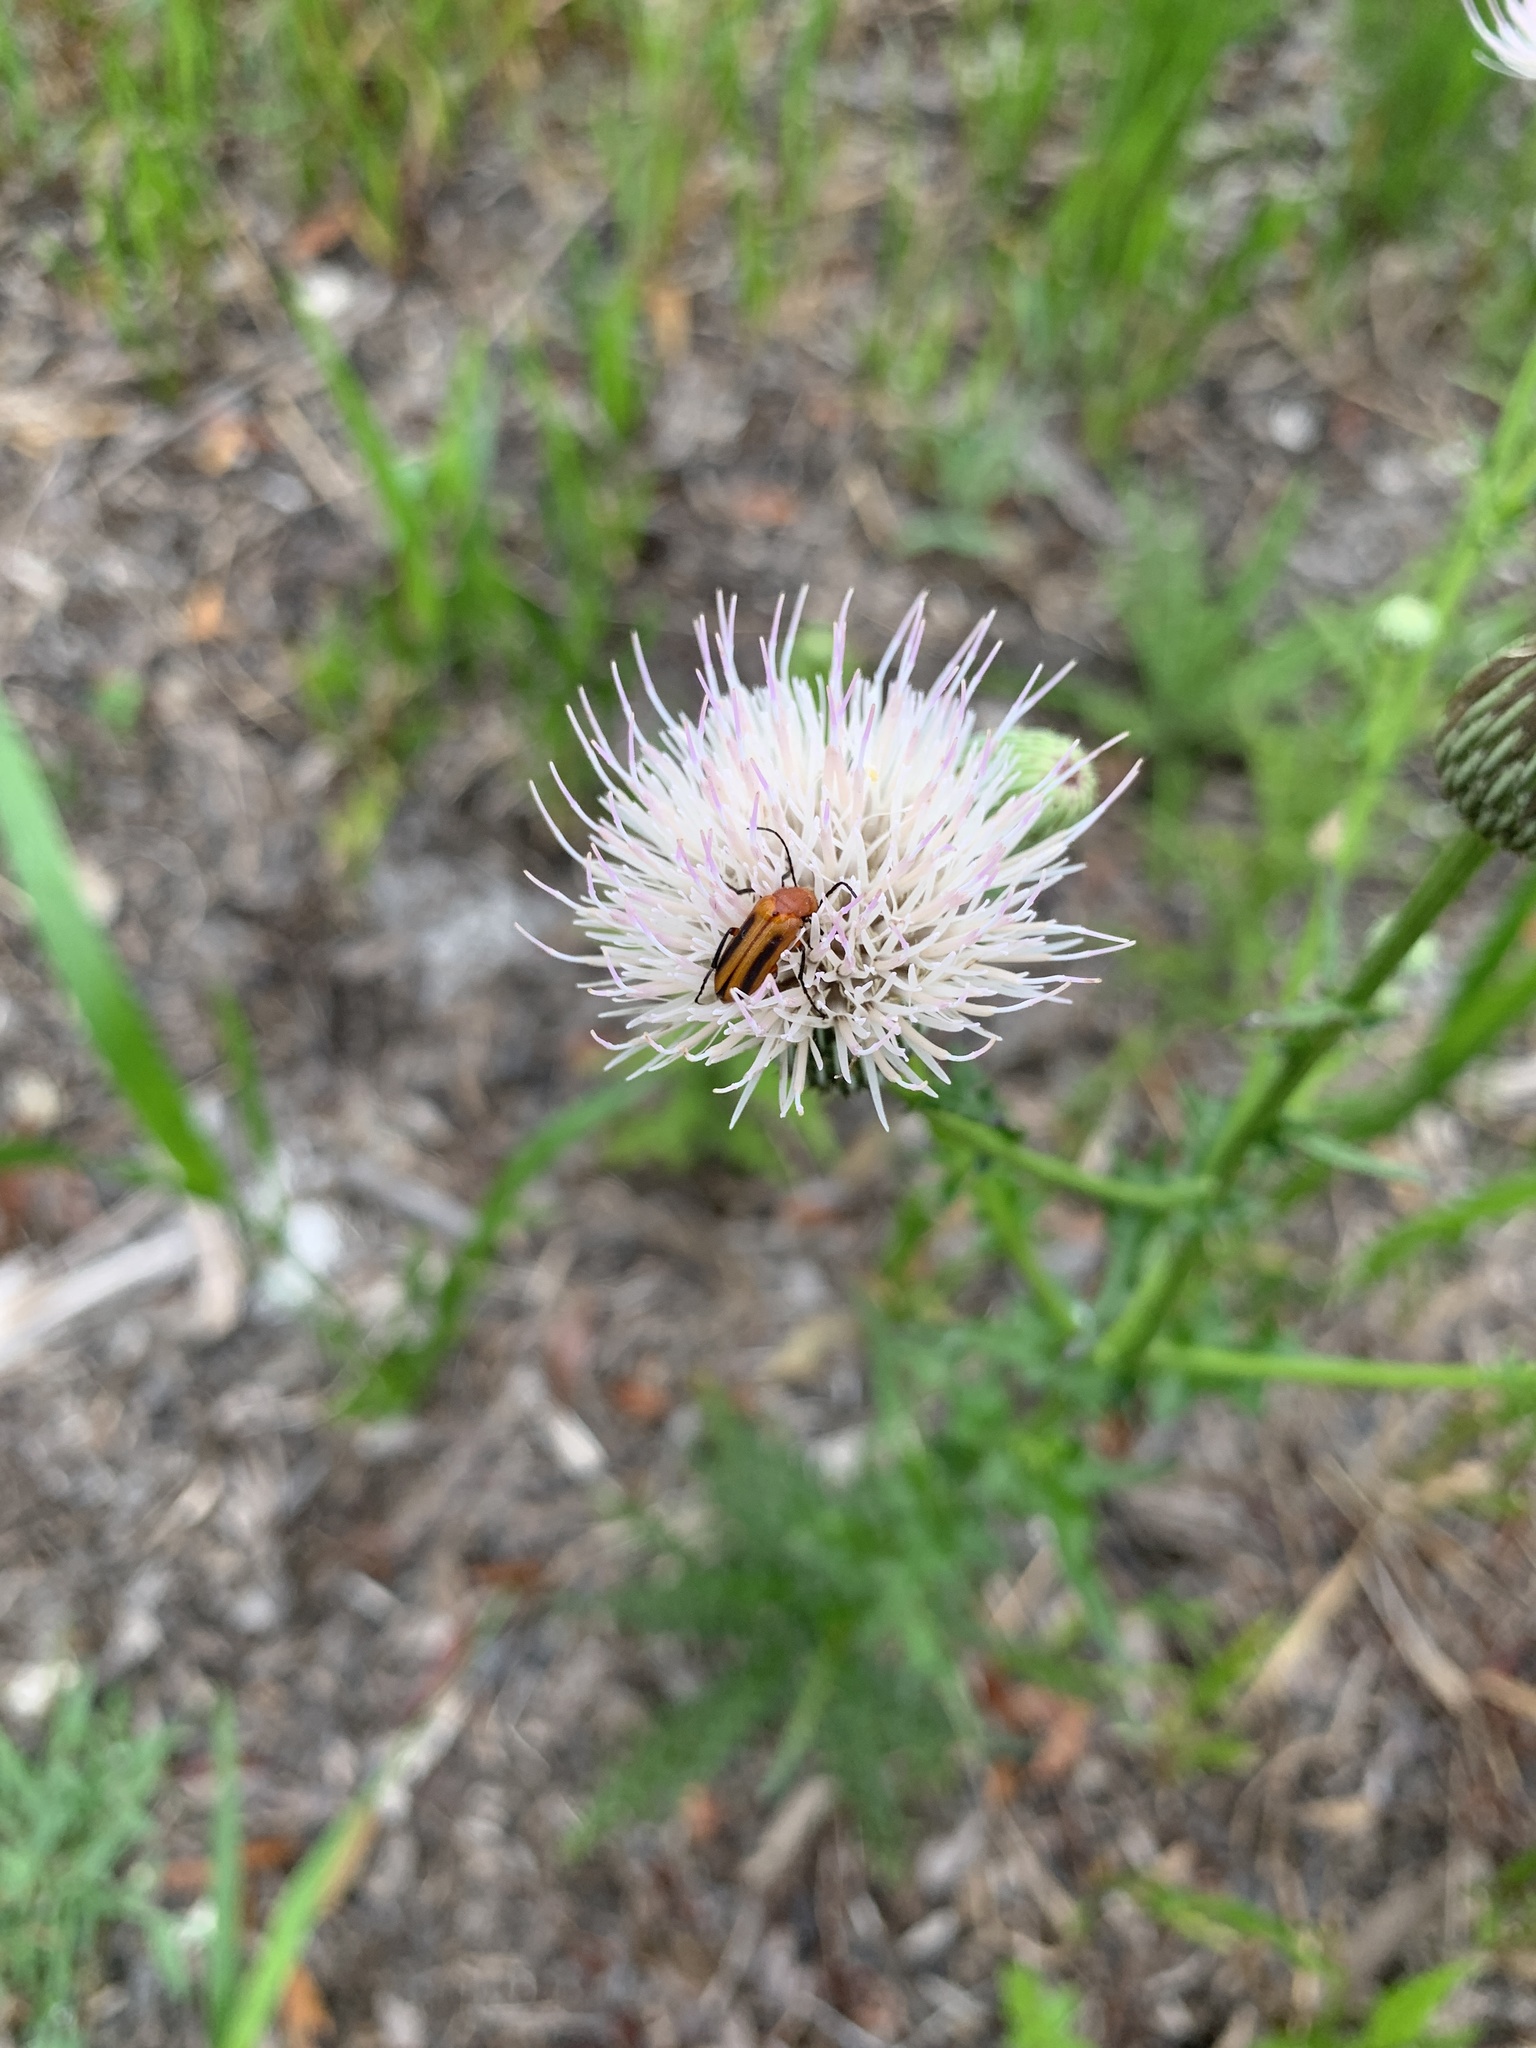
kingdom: Animalia
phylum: Arthropoda
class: Insecta
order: Coleoptera
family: Meloidae
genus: Nemognatha
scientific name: Nemognatha piazata
